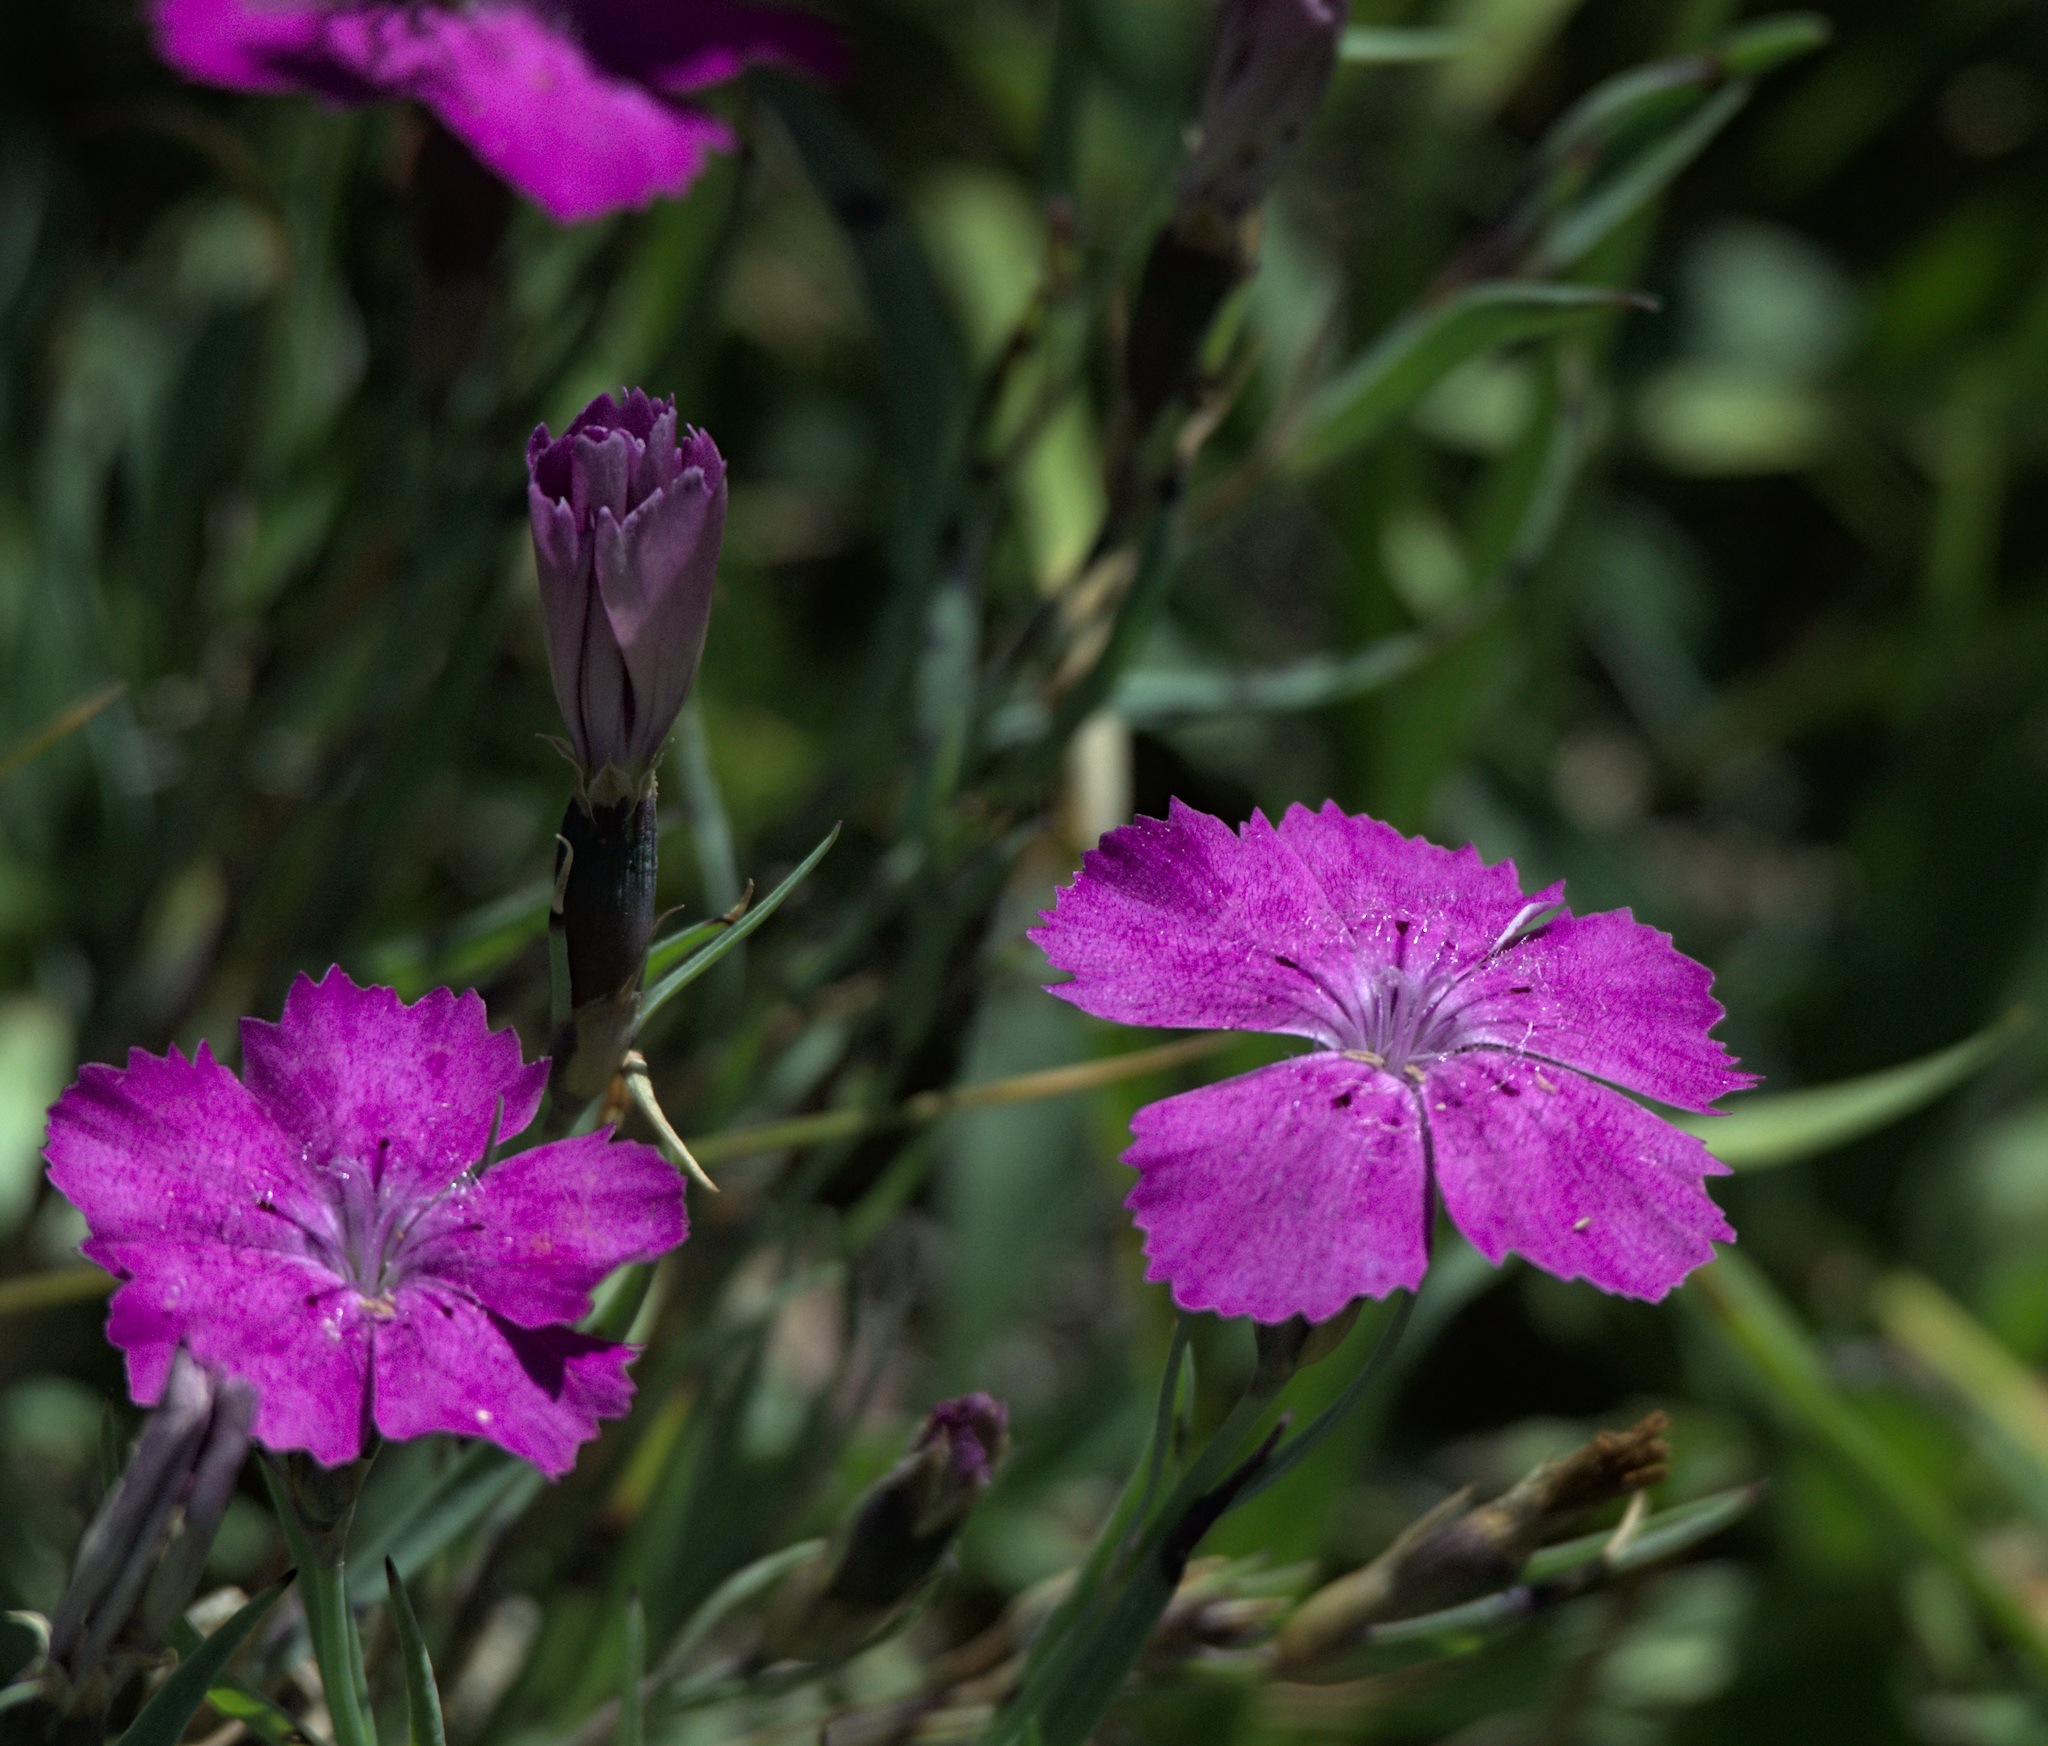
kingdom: Plantae
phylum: Tracheophyta
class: Magnoliopsida
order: Caryophyllales
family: Caryophyllaceae
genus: Dianthus
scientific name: Dianthus chinensis
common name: Rainbow pink
